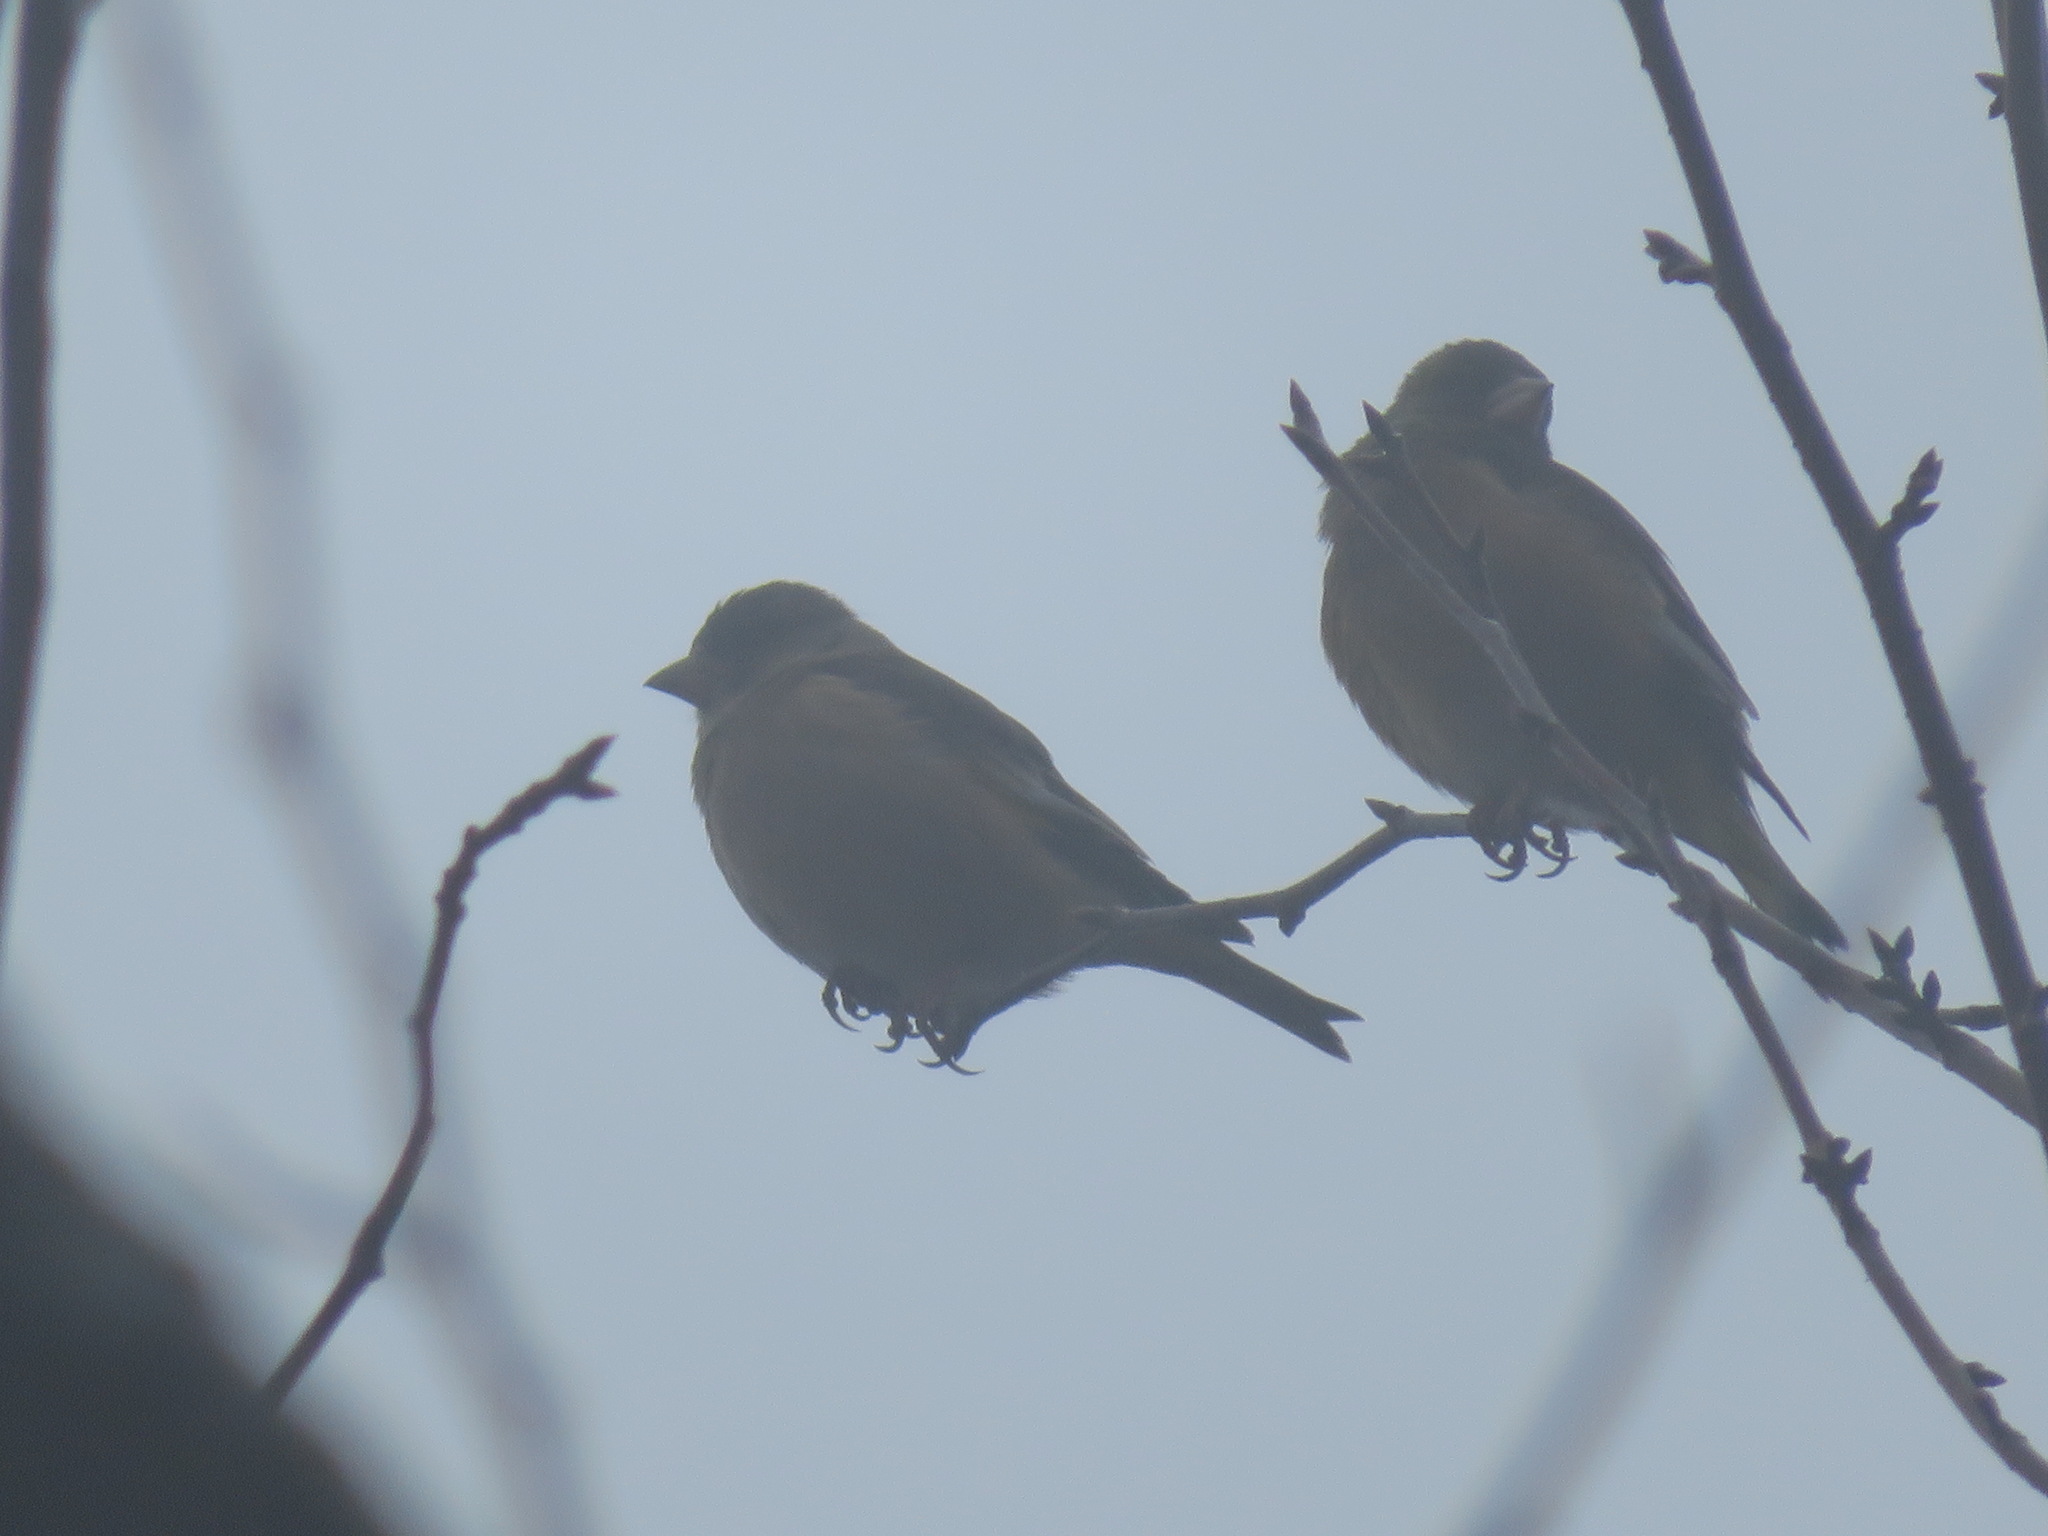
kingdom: Plantae
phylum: Tracheophyta
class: Liliopsida
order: Poales
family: Poaceae
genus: Chloris
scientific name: Chloris sinica
